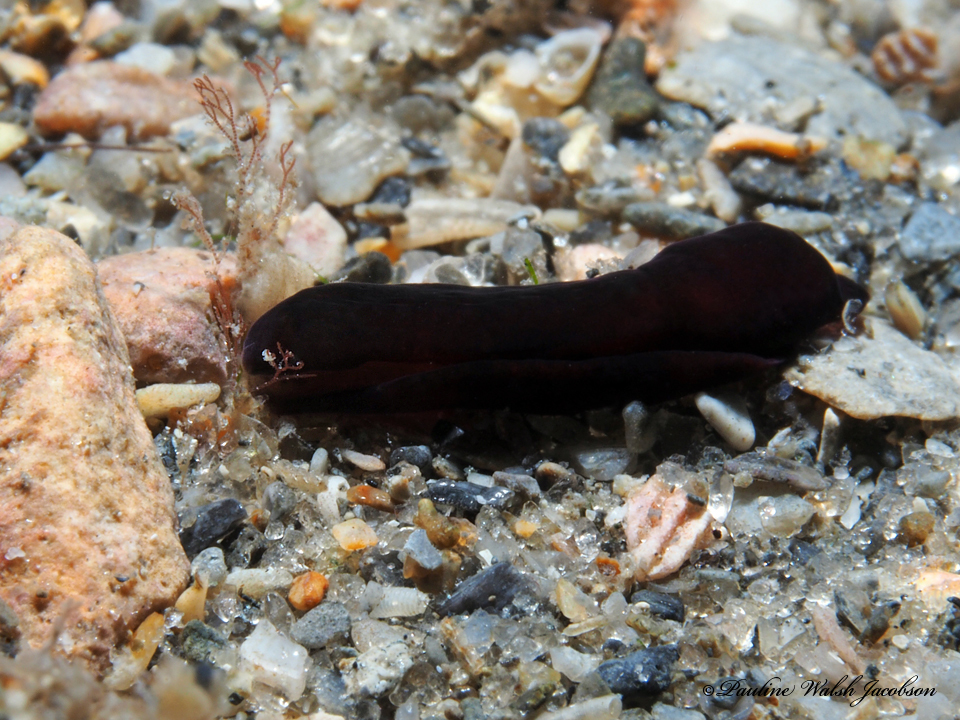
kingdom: Animalia
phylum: Mollusca
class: Gastropoda
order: Cephalaspidea
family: Aglajidae
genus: Nakamigawaia
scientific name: Nakamigawaia felis
